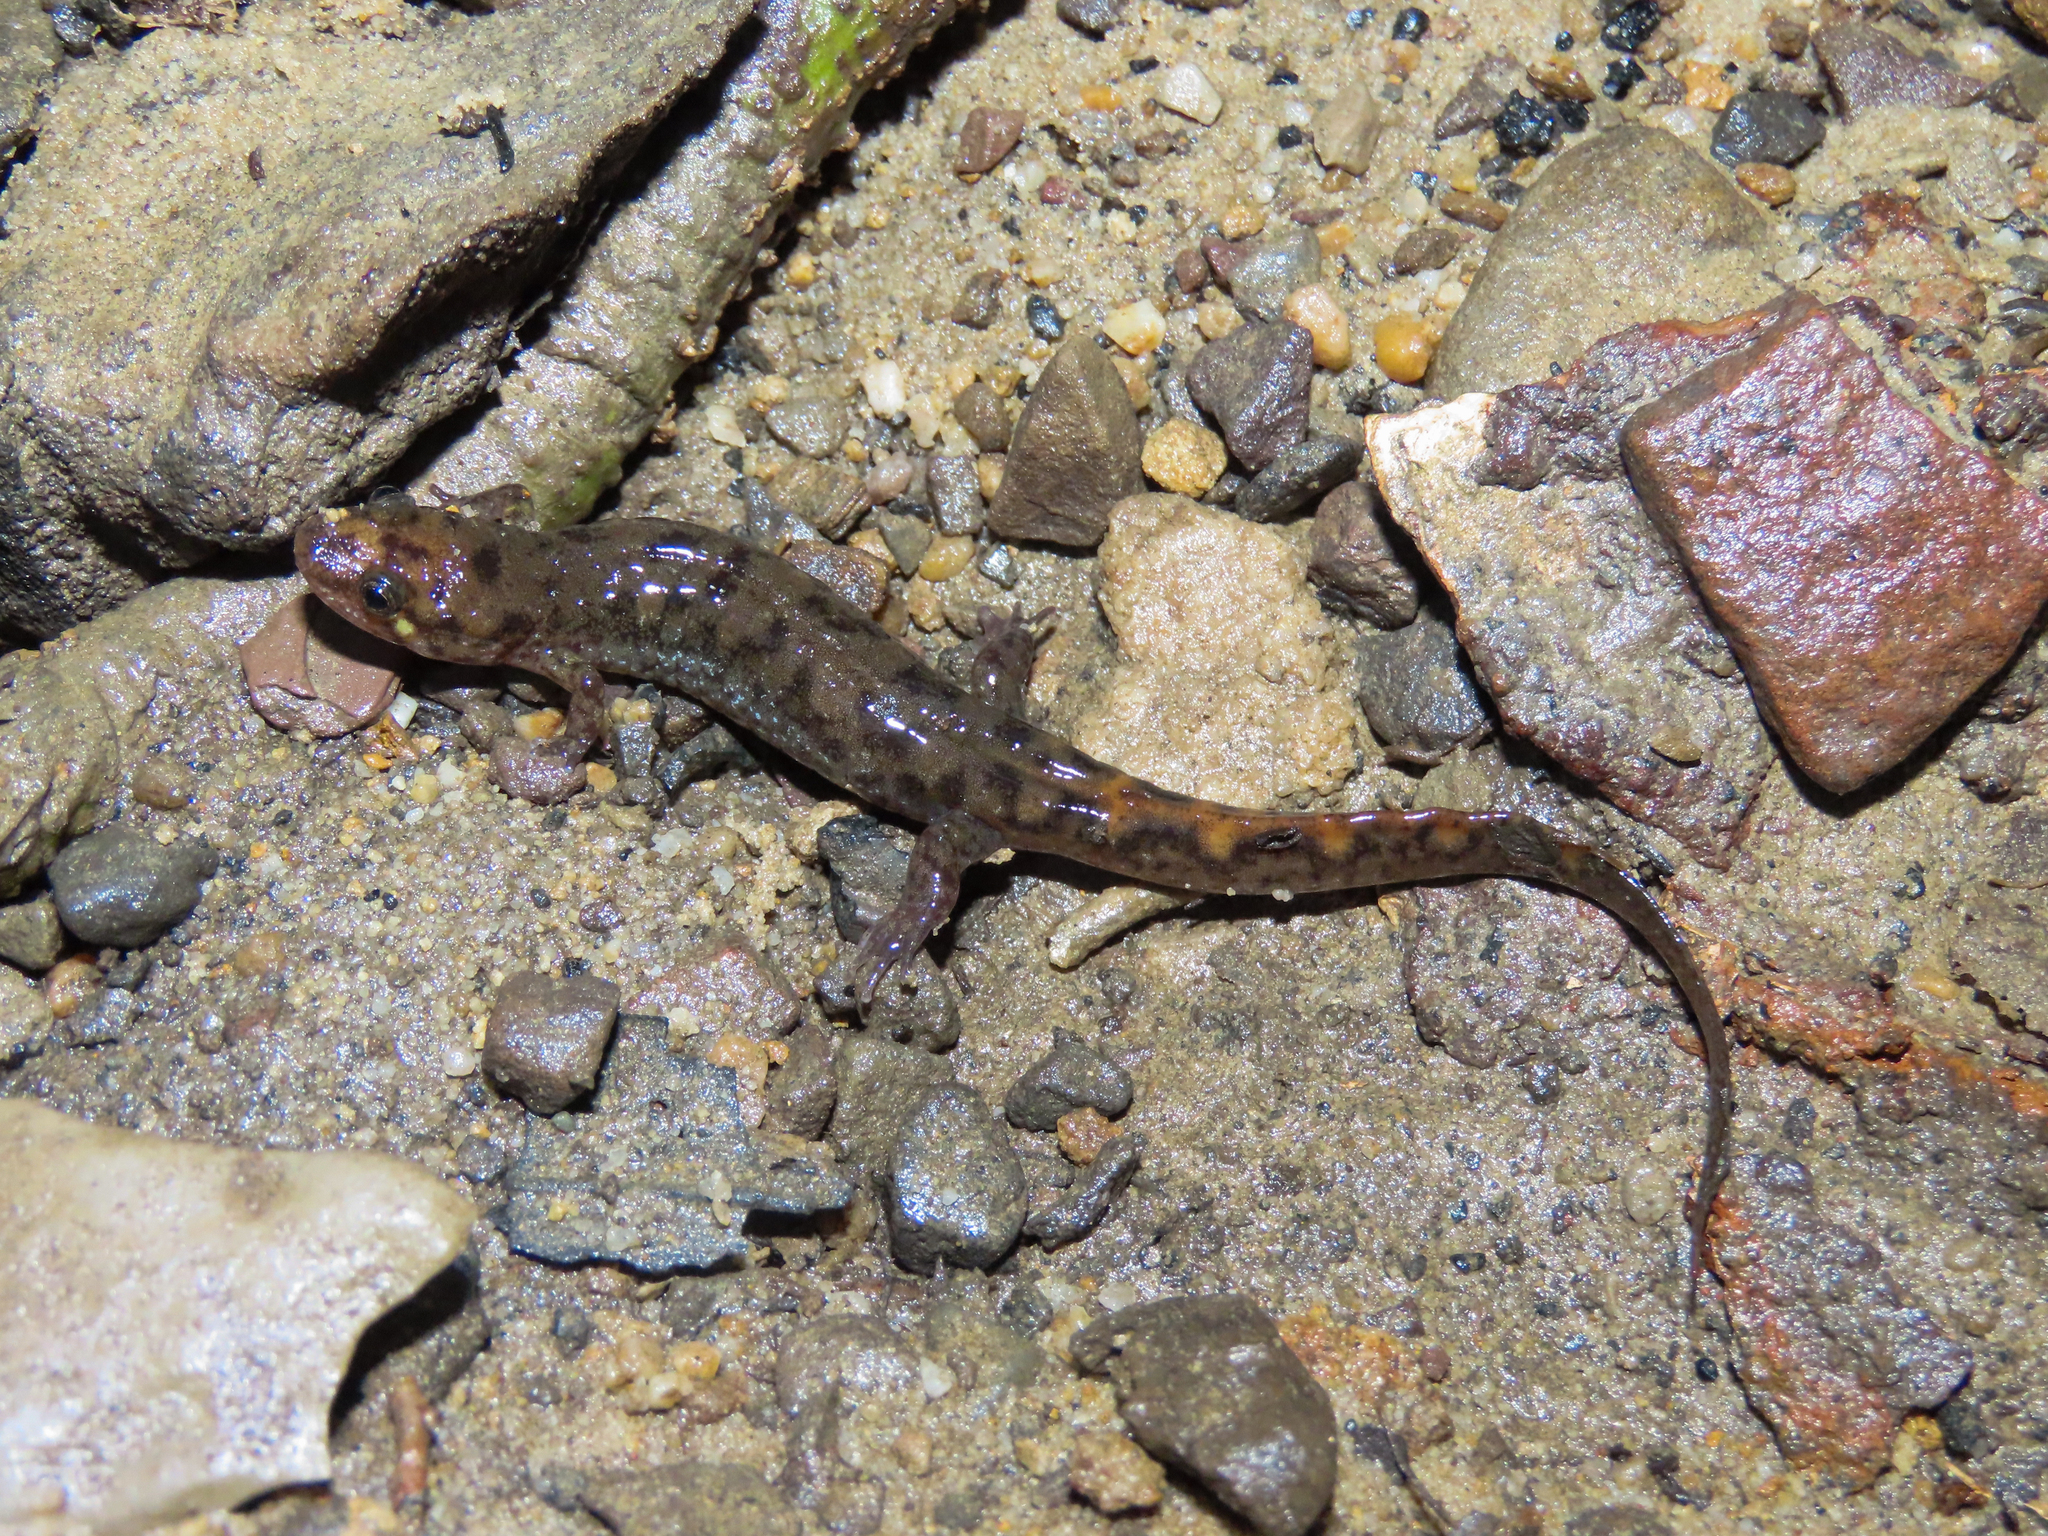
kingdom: Animalia
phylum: Chordata
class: Amphibia
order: Caudata
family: Plethodontidae
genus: Desmognathus
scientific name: Desmognathus monticola
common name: Seal salamander
